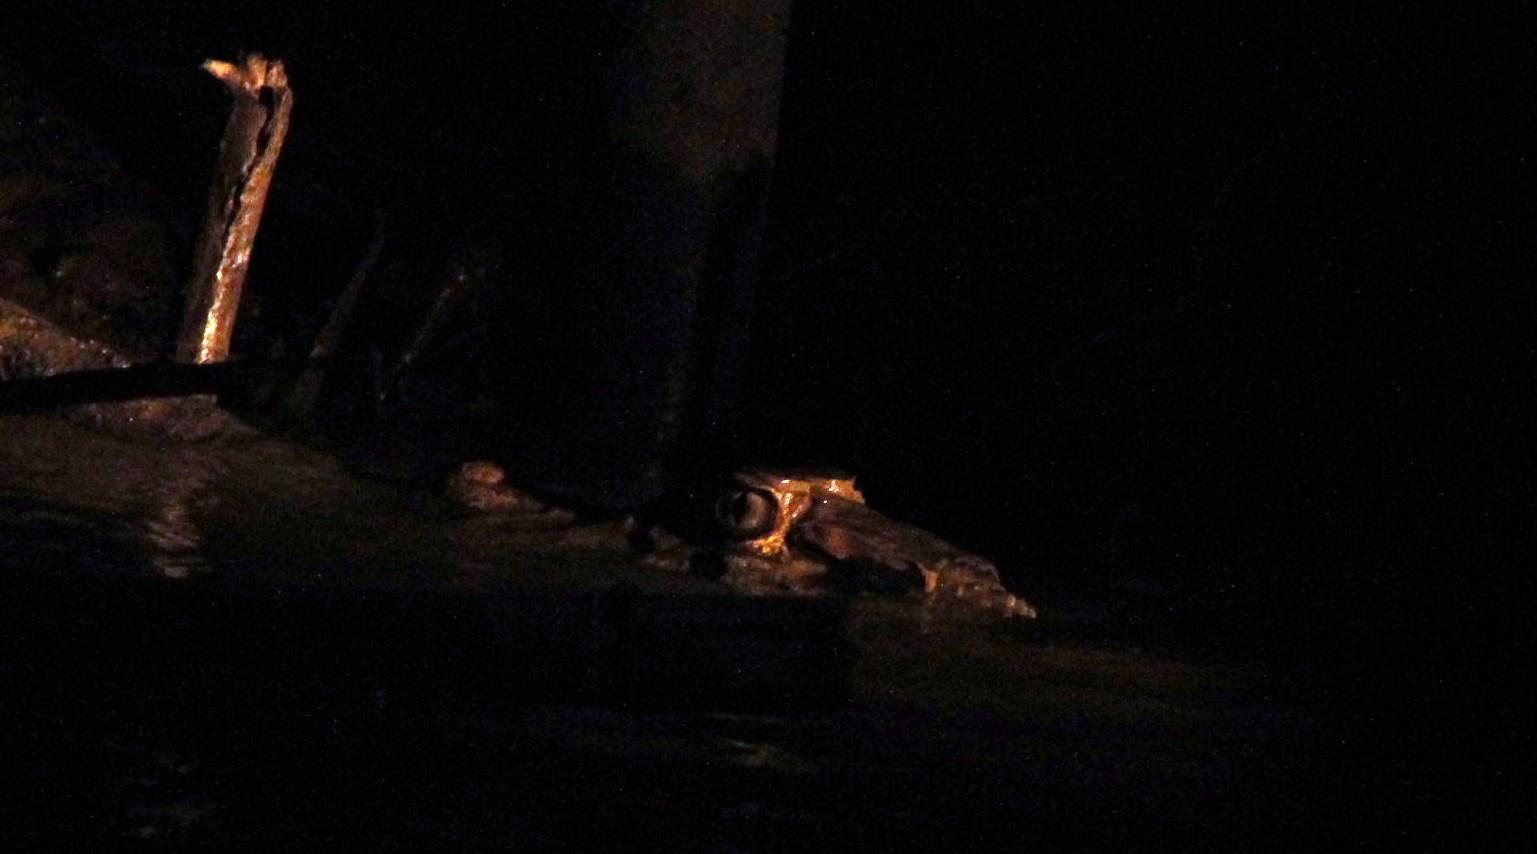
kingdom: Animalia
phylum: Chordata
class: Crocodylia
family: Alligatoridae
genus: Melanosuchus
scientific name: Melanosuchus niger
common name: Black caiman
